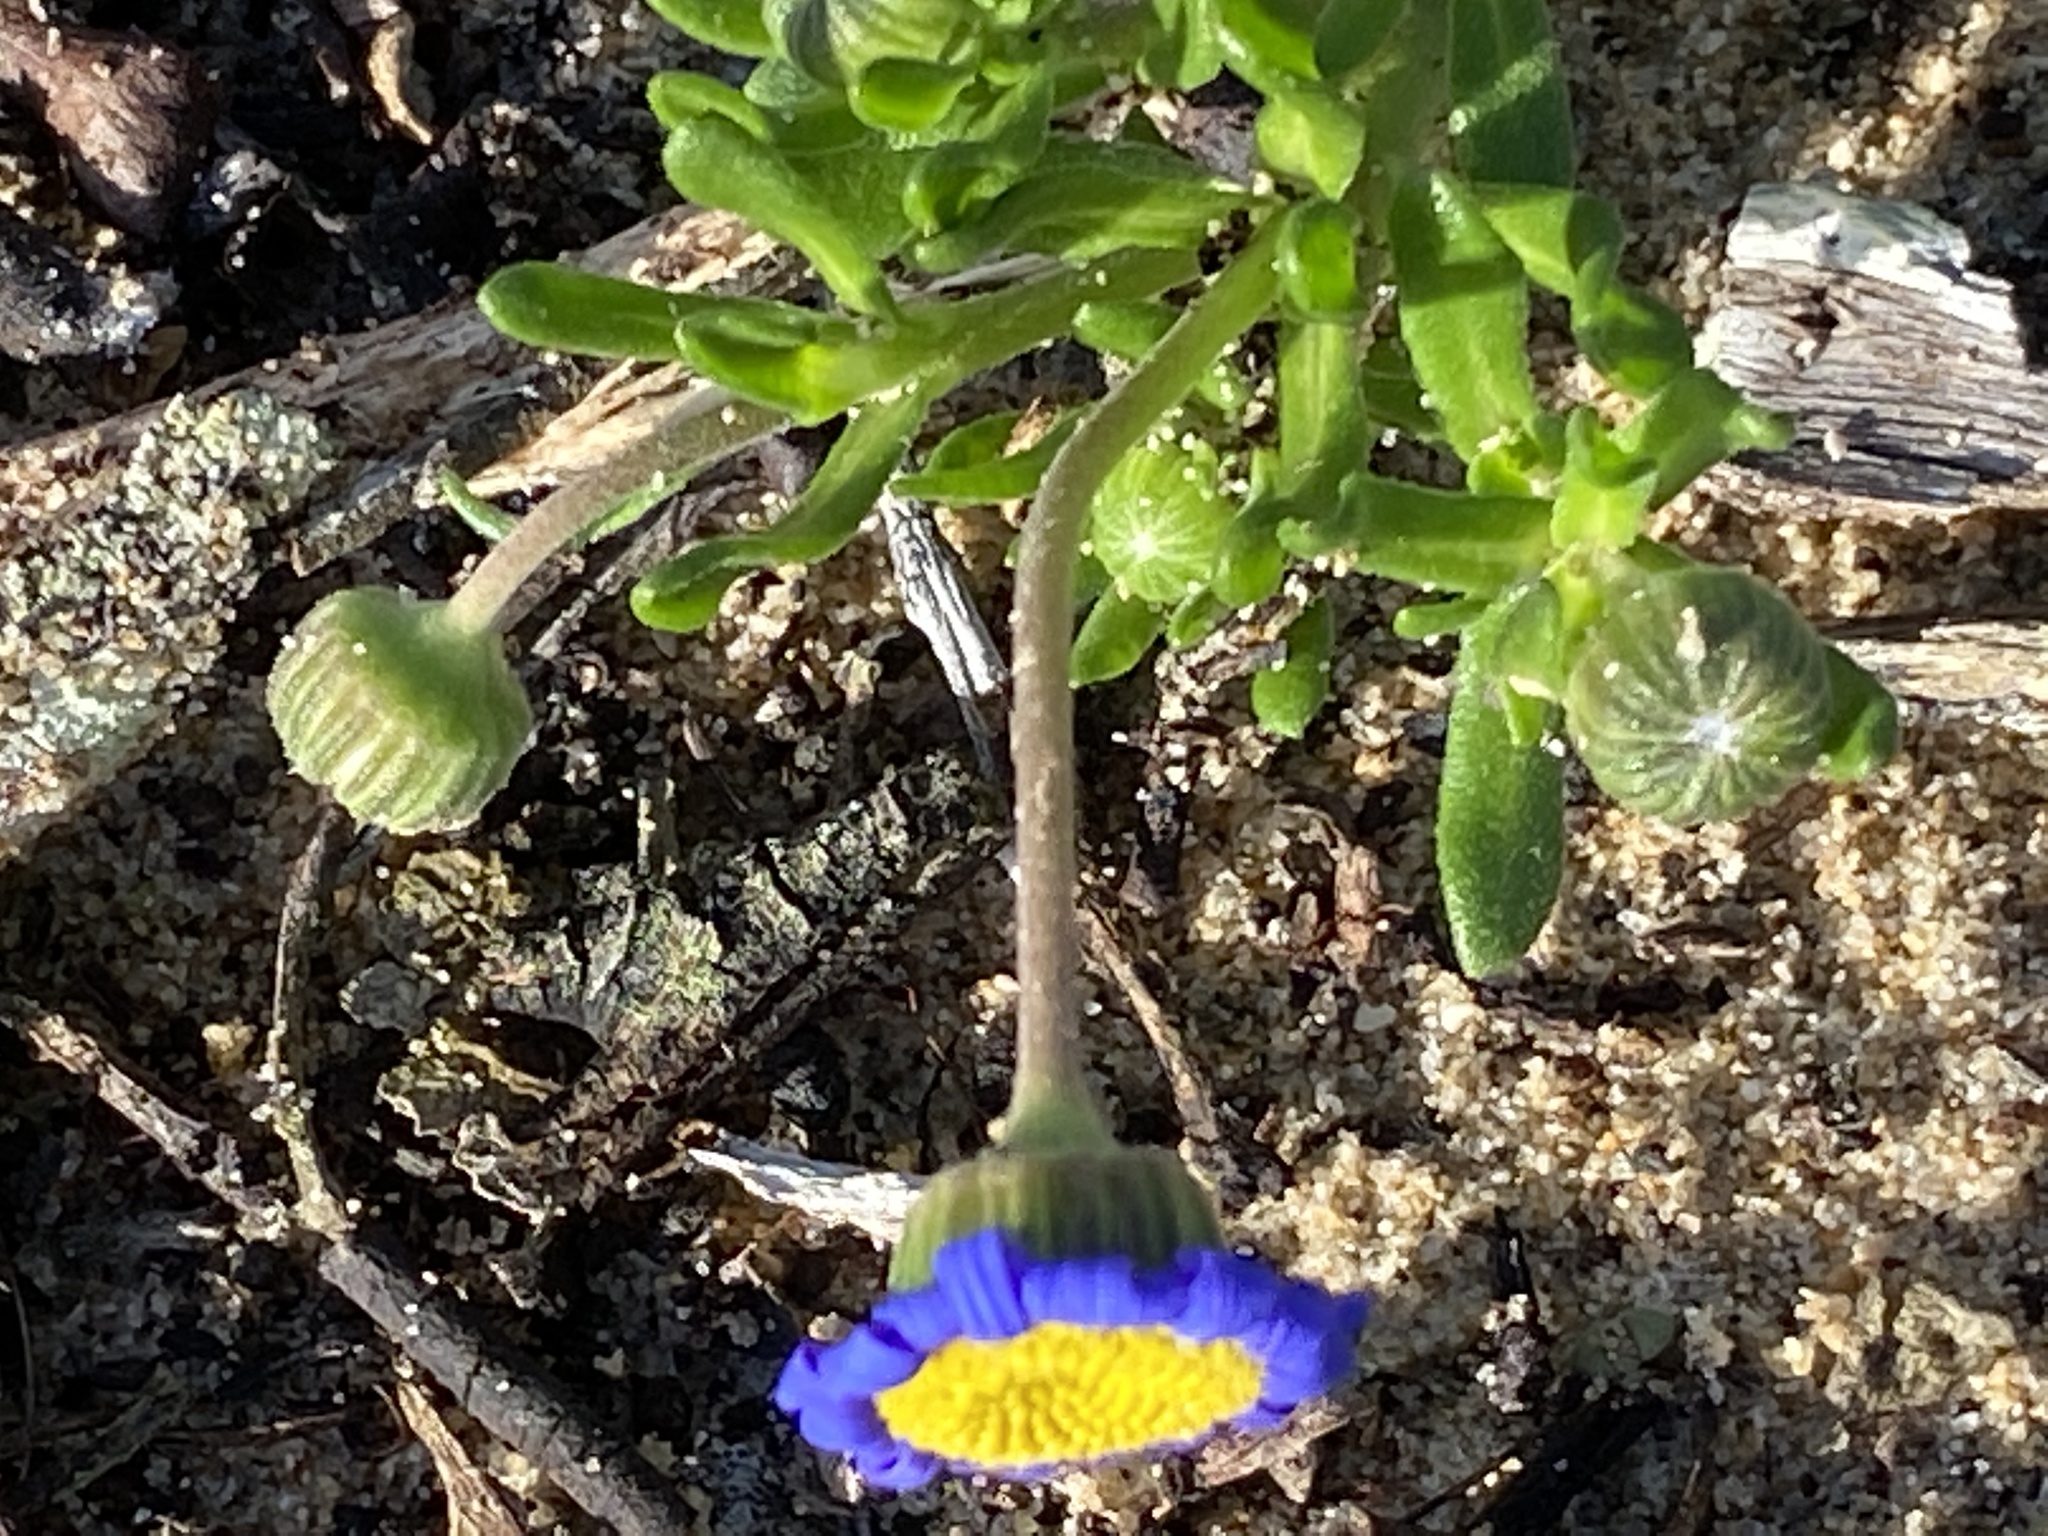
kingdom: Plantae
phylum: Tracheophyta
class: Magnoliopsida
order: Asterales
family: Asteraceae
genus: Felicia
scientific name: Felicia amoena
